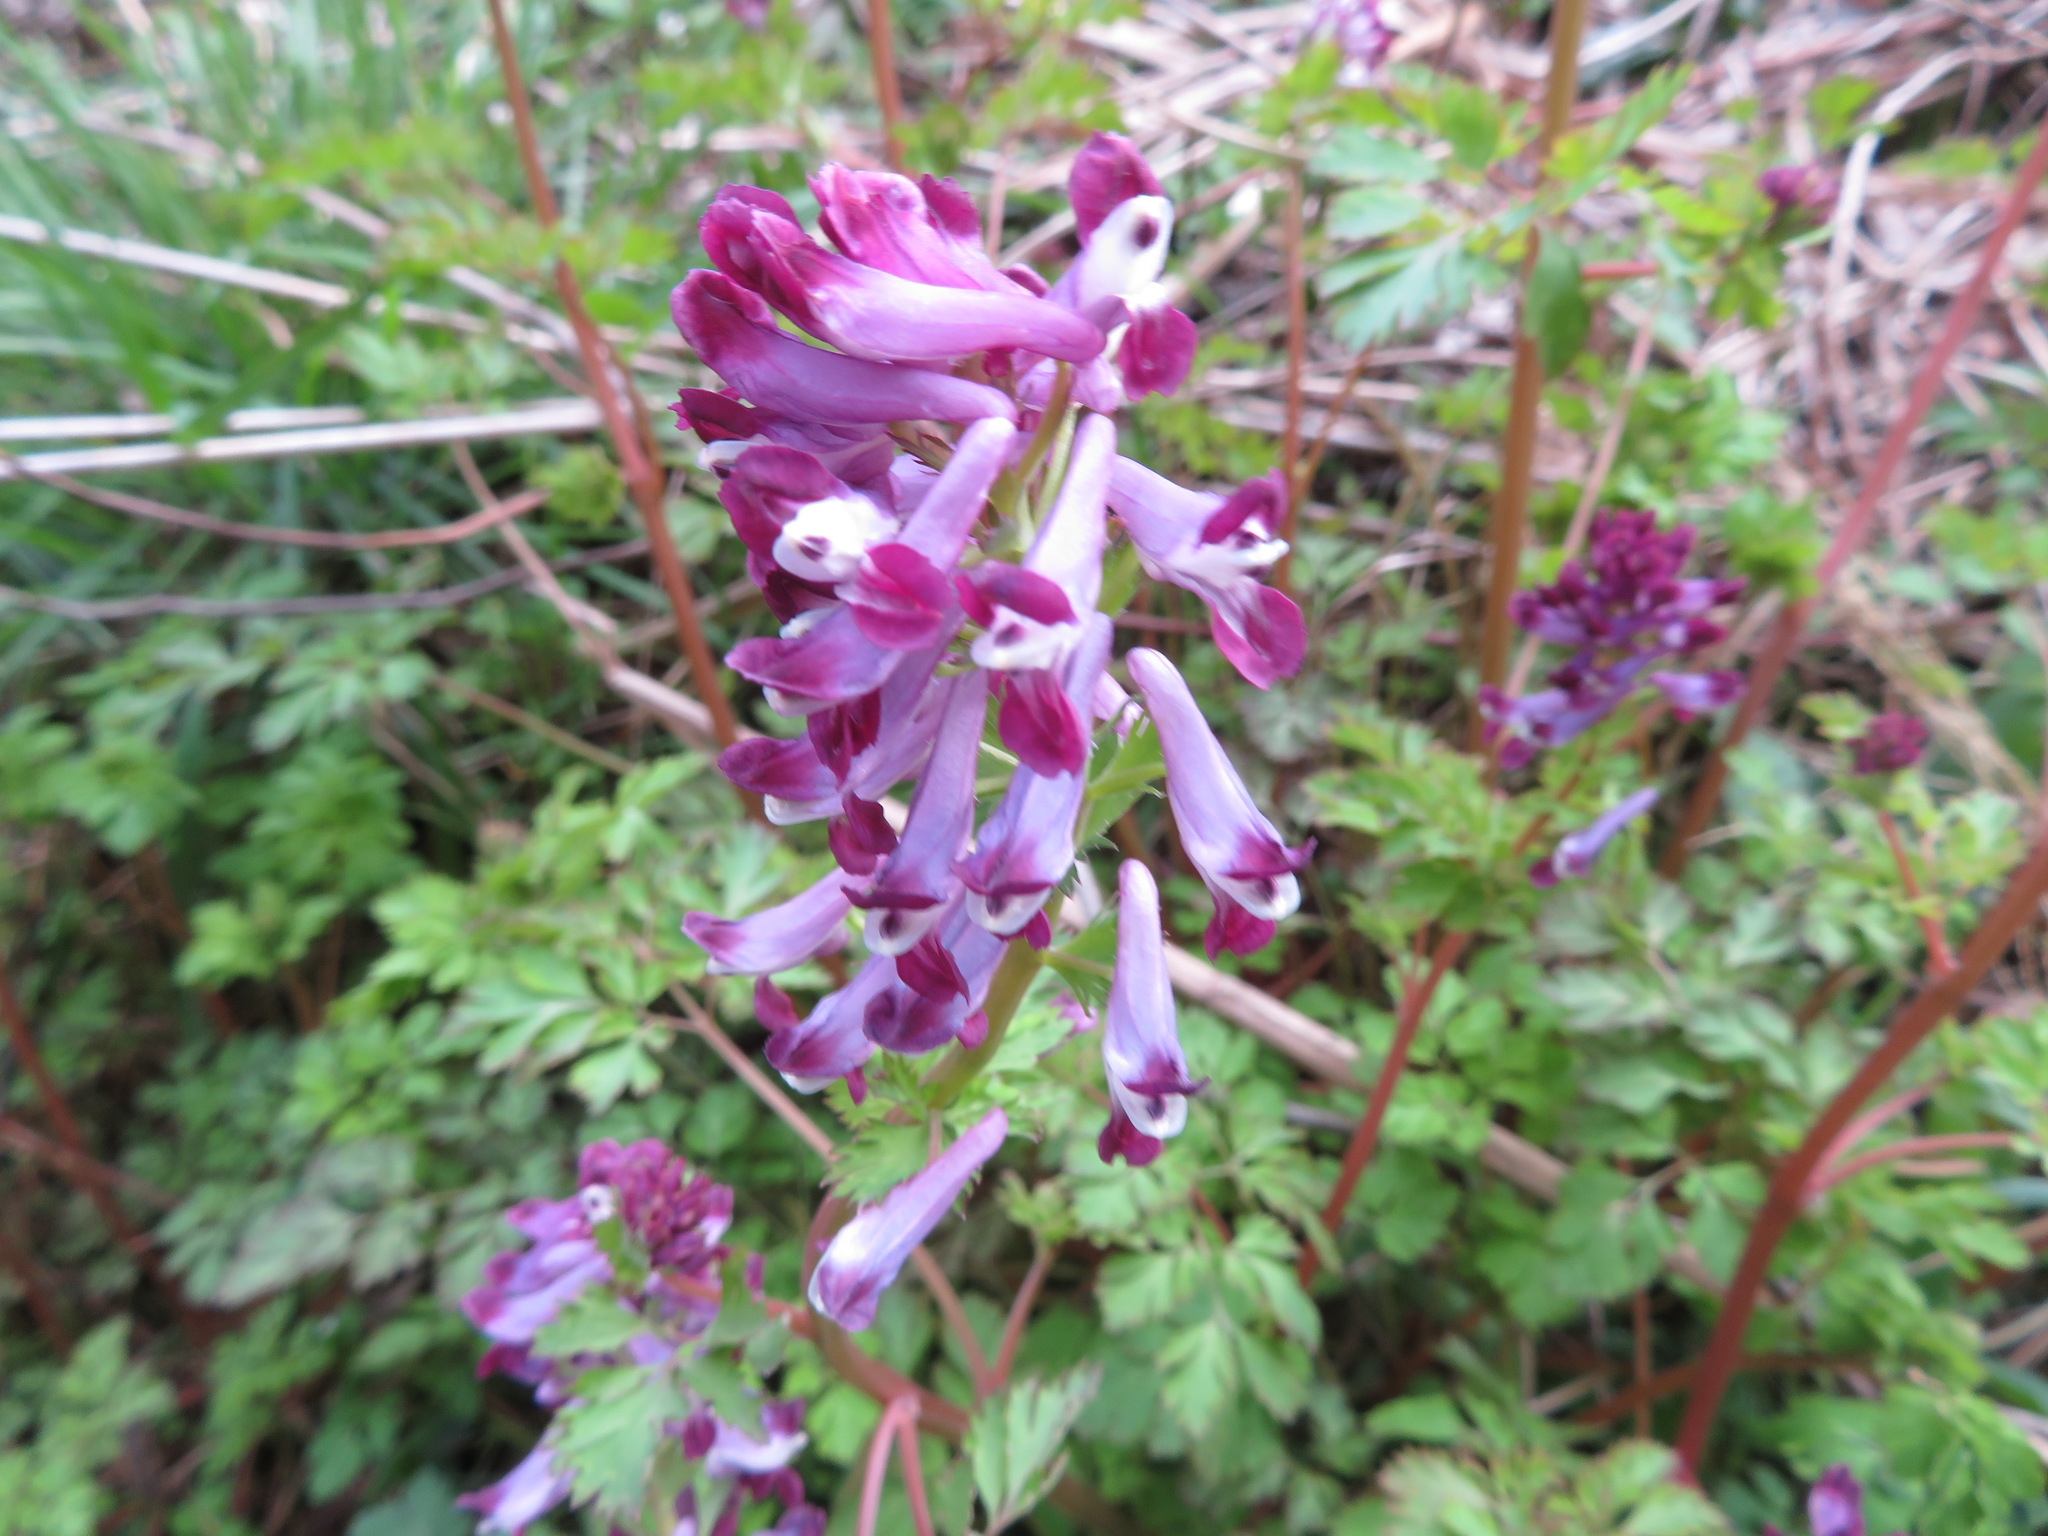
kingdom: Plantae
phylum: Tracheophyta
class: Magnoliopsida
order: Ranunculales
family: Papaveraceae
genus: Corydalis
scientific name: Corydalis incisa
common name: Incised fumewort
